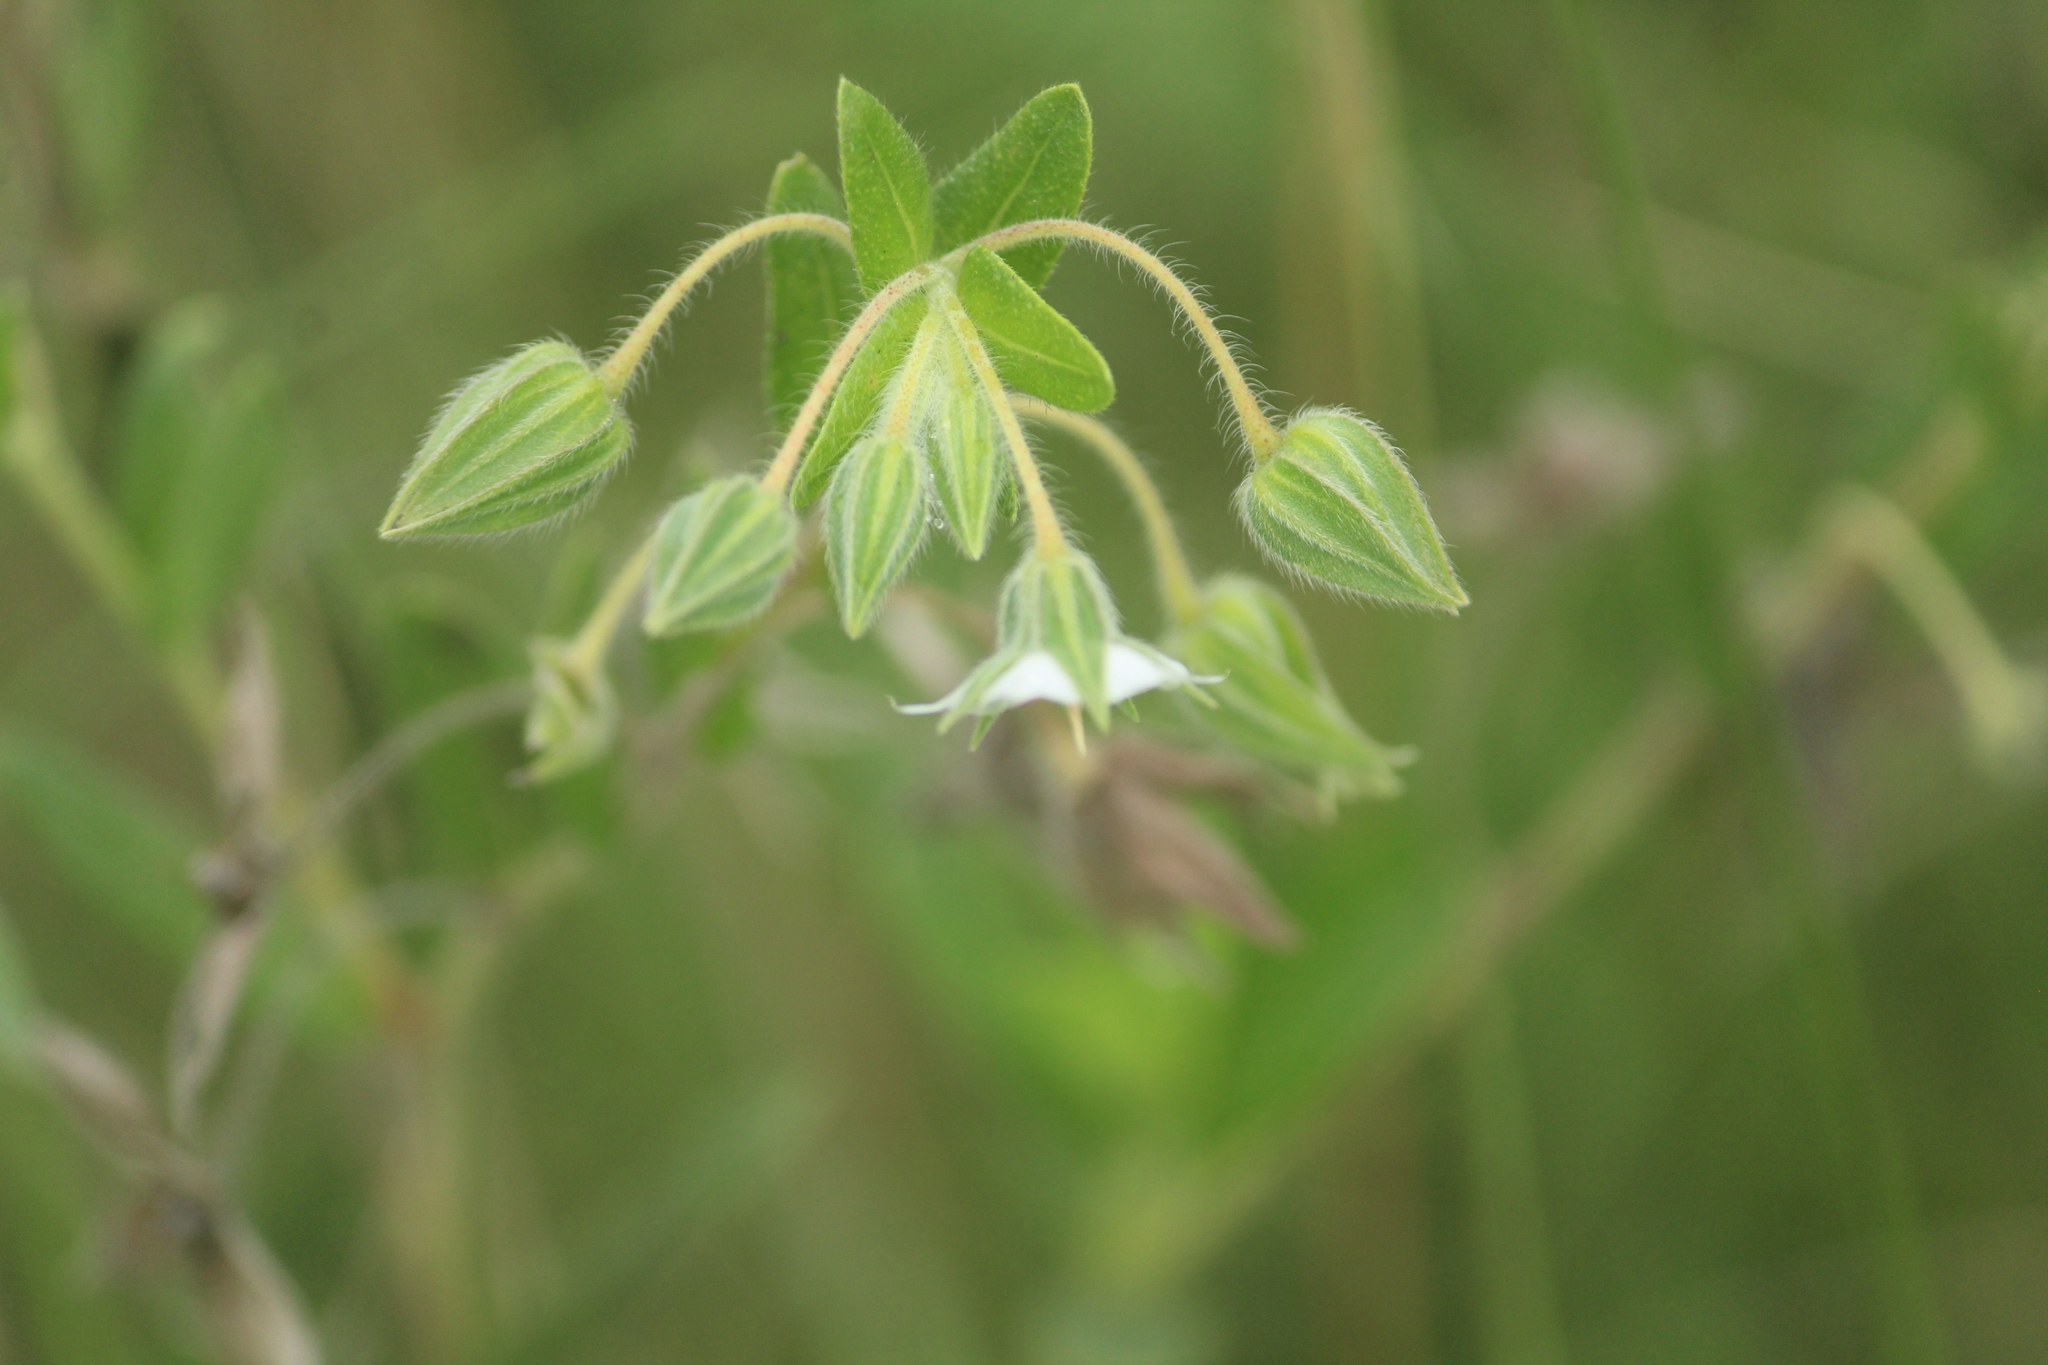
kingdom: Plantae
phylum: Tracheophyta
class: Magnoliopsida
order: Boraginales
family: Boraginaceae
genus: Trichodesma
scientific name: Trichodesma zeylanicum
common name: Camelbush
